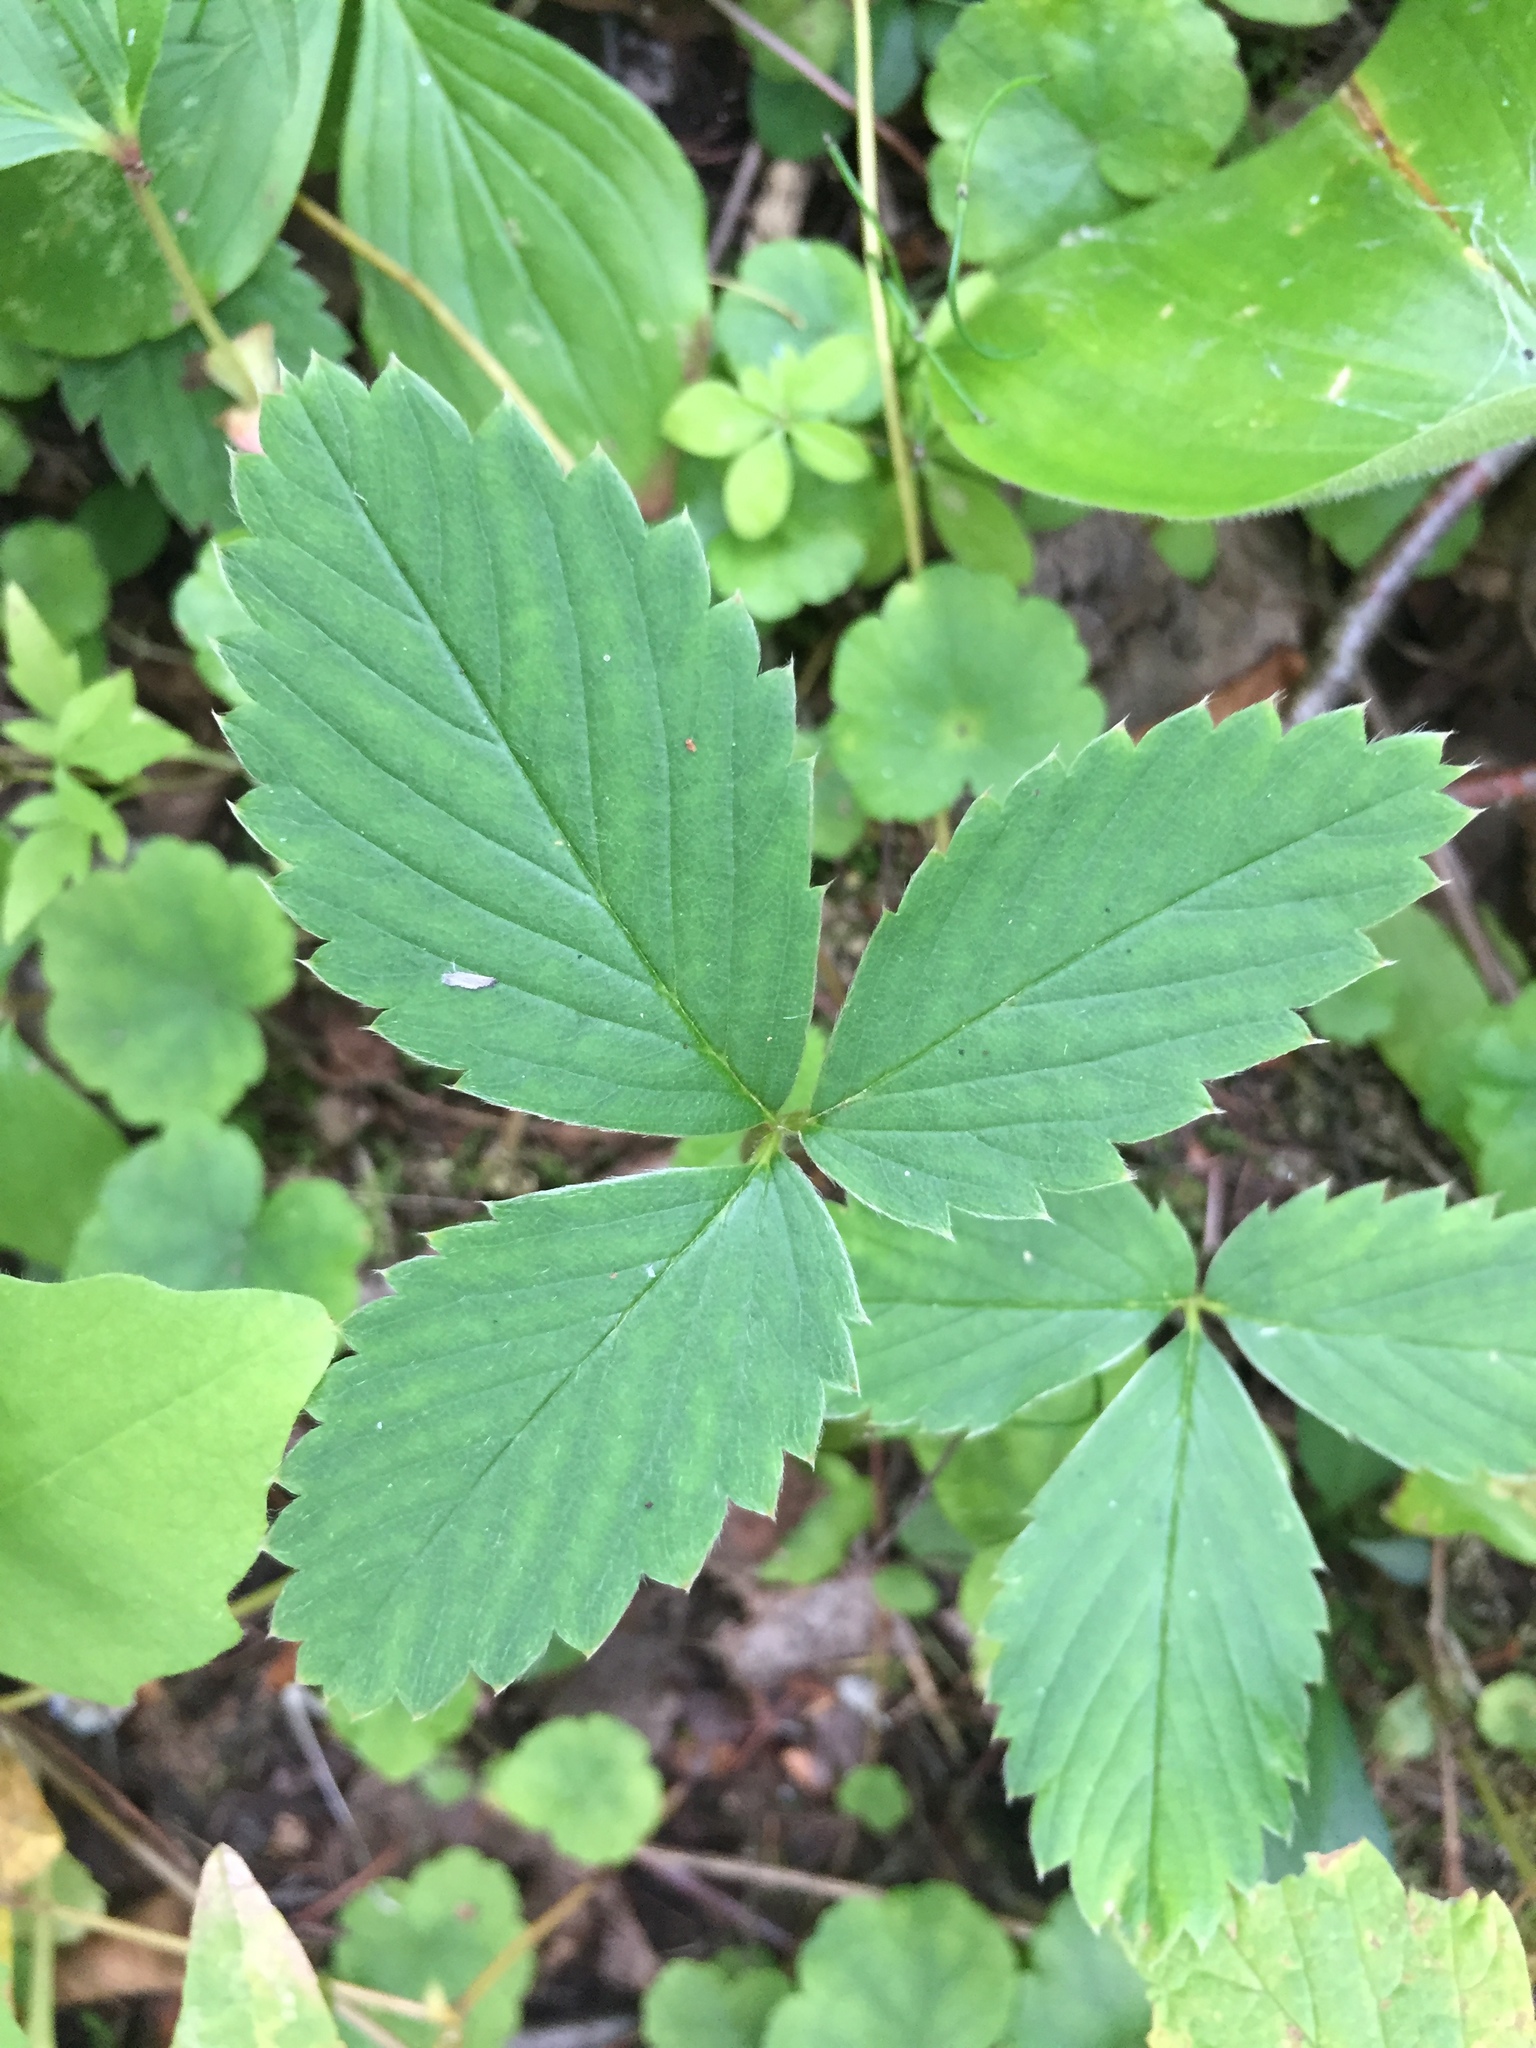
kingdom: Plantae
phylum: Tracheophyta
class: Magnoliopsida
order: Rosales
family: Rosaceae
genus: Fragaria
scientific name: Fragaria virginiana
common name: Thickleaved wild strawberry
